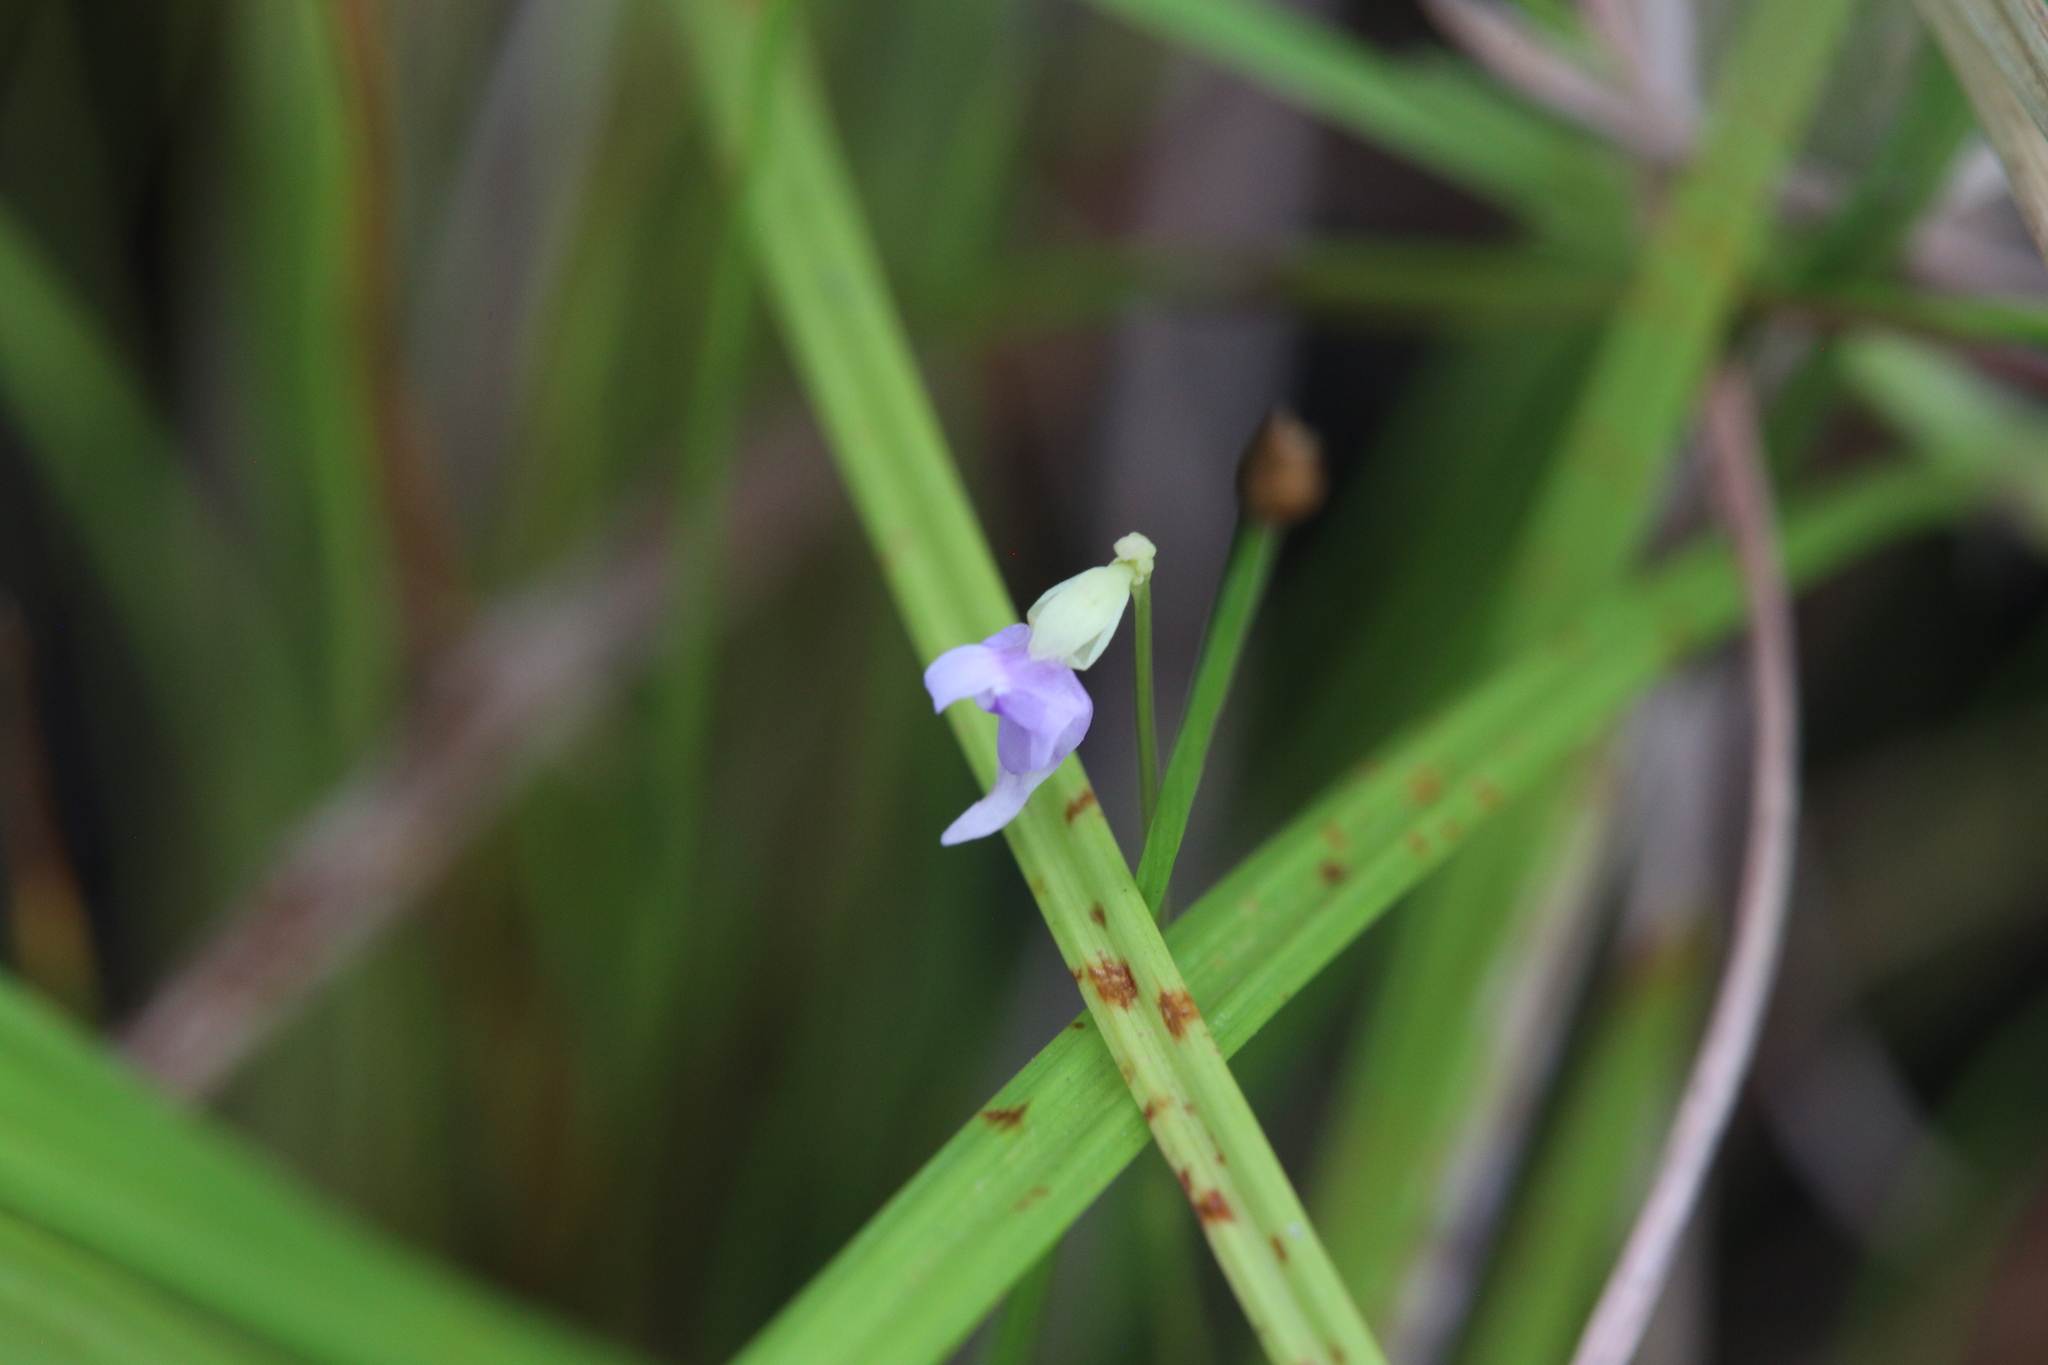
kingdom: Plantae
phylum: Tracheophyta
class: Magnoliopsida
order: Lamiales
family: Lentibulariaceae
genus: Utricularia
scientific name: Utricularia caerulea
